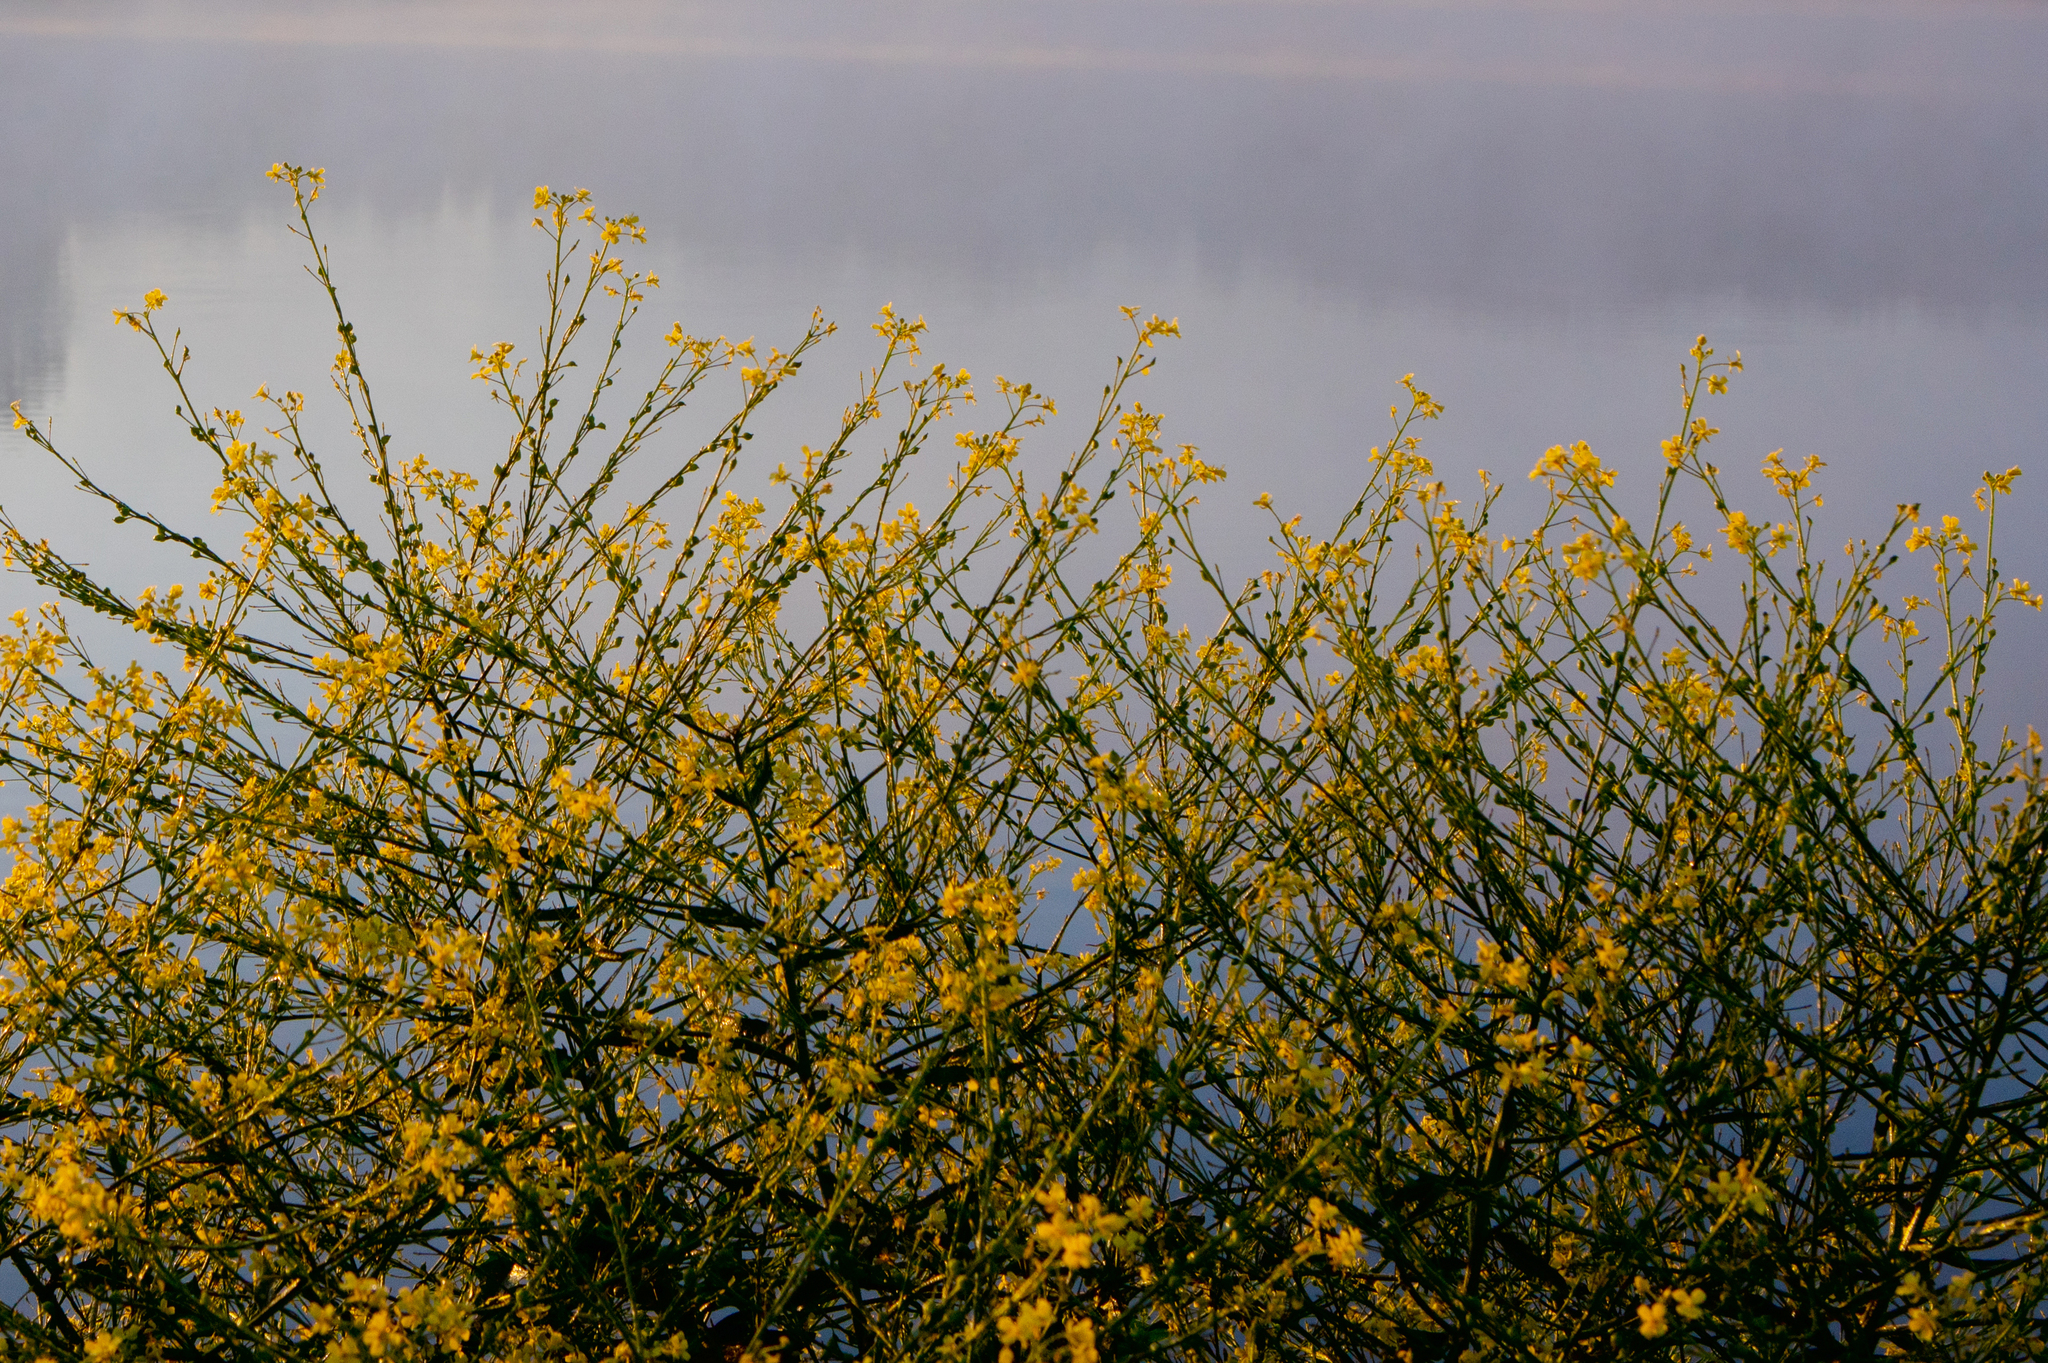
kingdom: Plantae
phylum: Tracheophyta
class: Magnoliopsida
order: Brassicales
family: Brassicaceae
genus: Bunias
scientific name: Bunias orientalis
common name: Warty-cabbage
